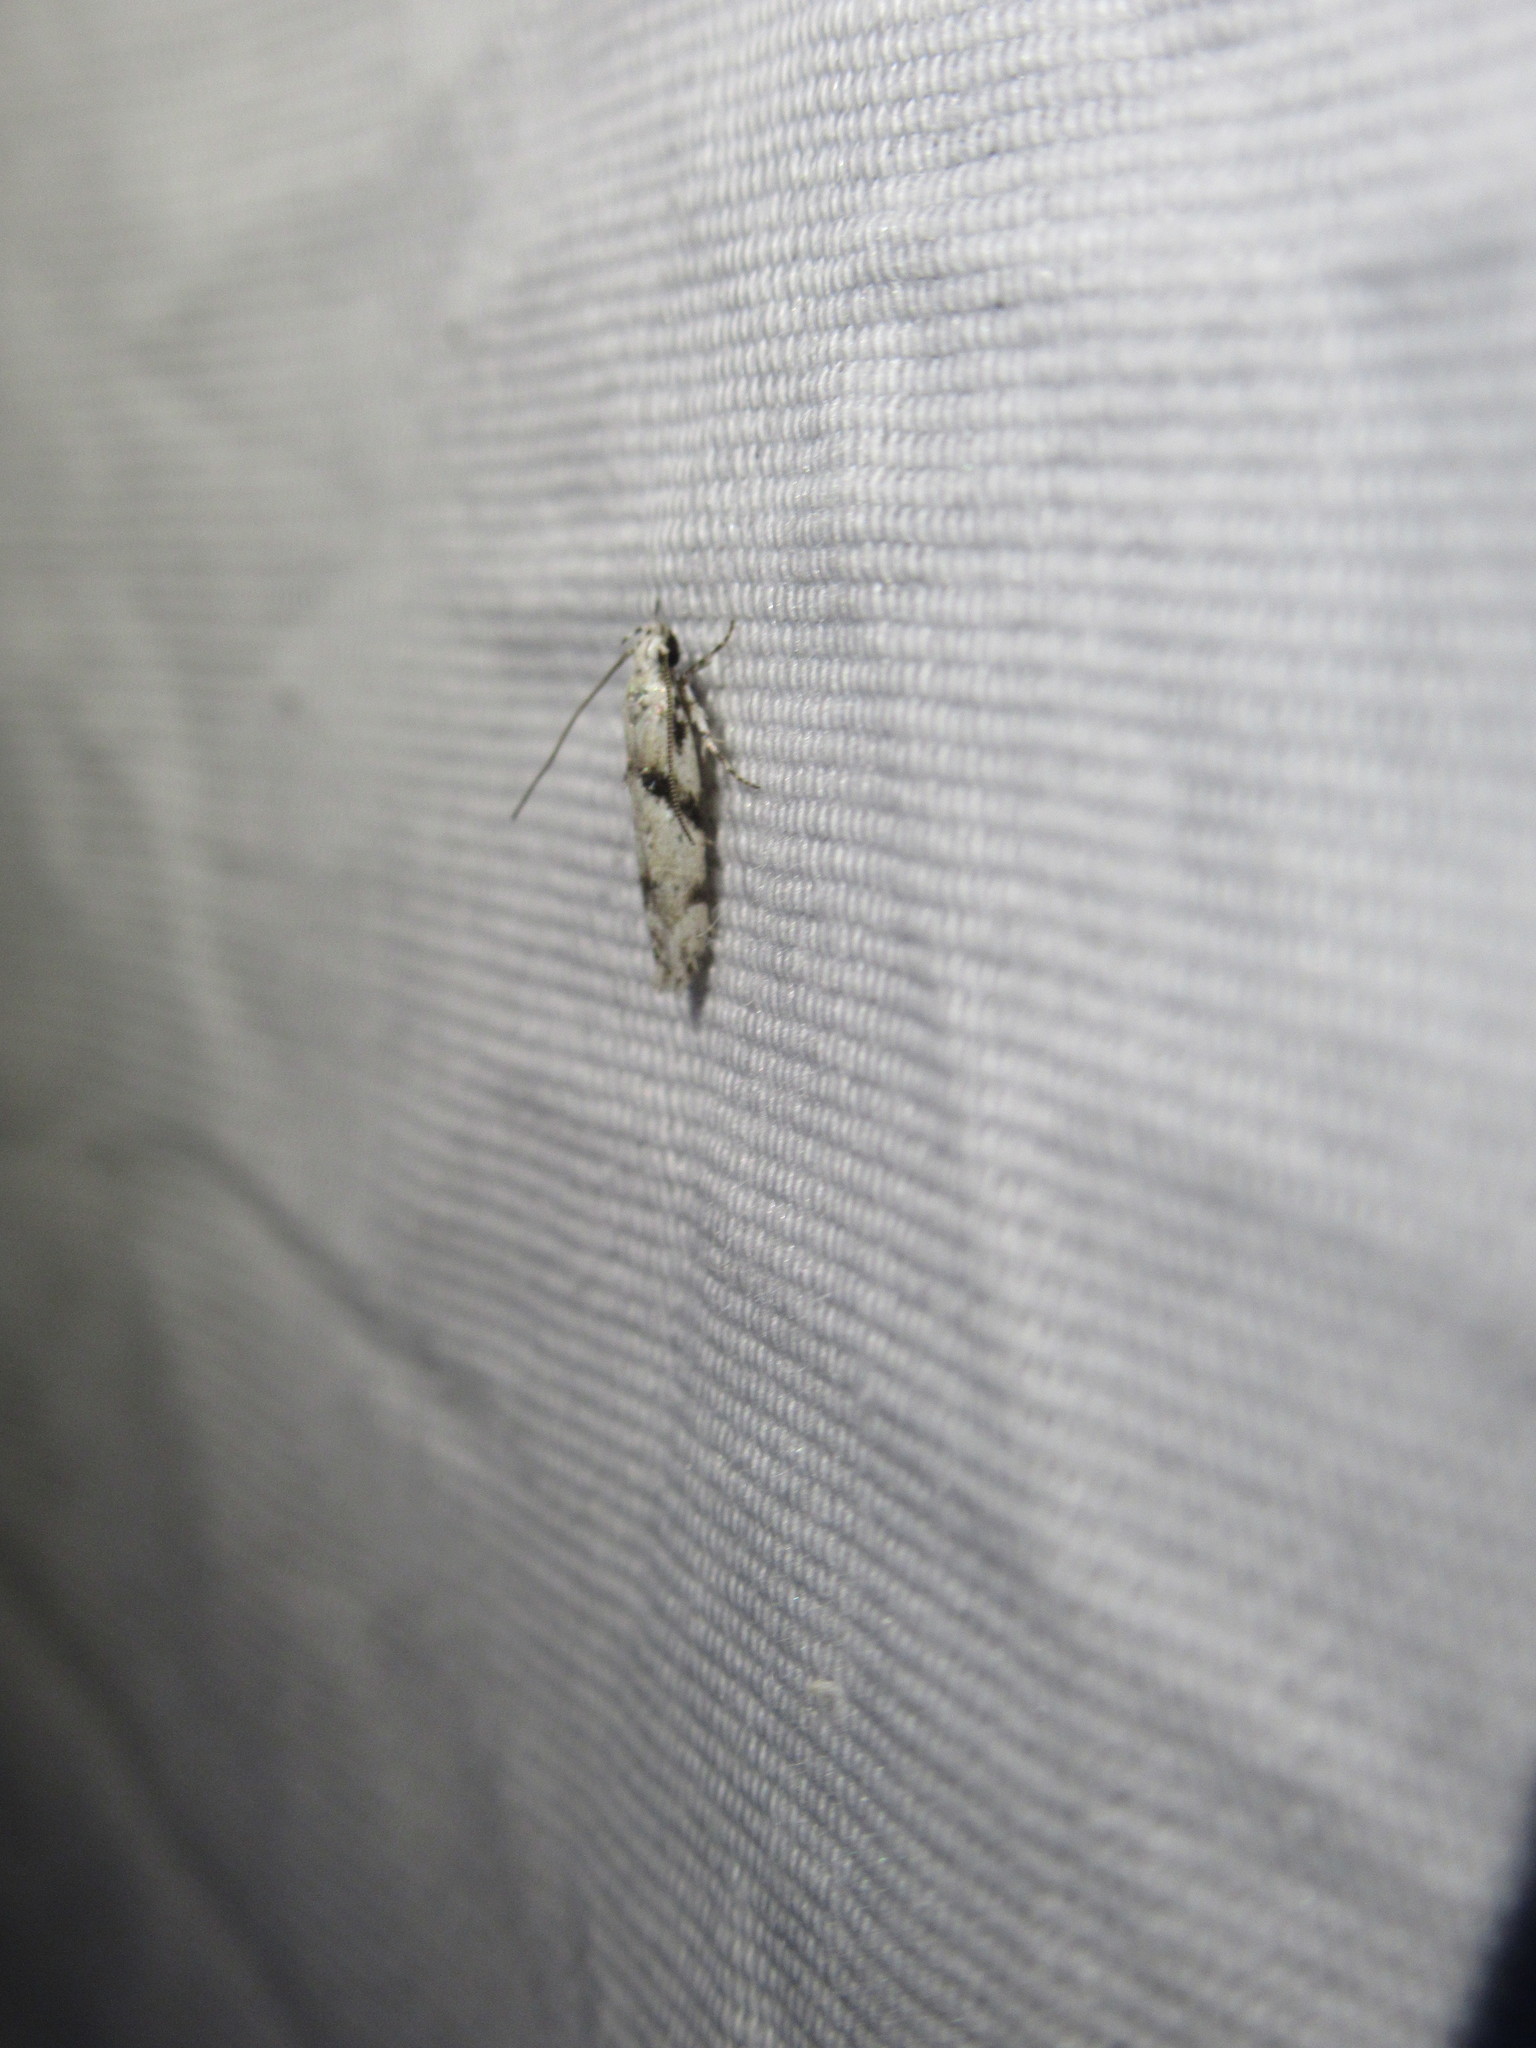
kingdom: Animalia
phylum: Arthropoda
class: Insecta
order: Lepidoptera
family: Gelechiidae
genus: Arogalea
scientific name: Arogalea cristifasciella
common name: White stripe-backed moth
